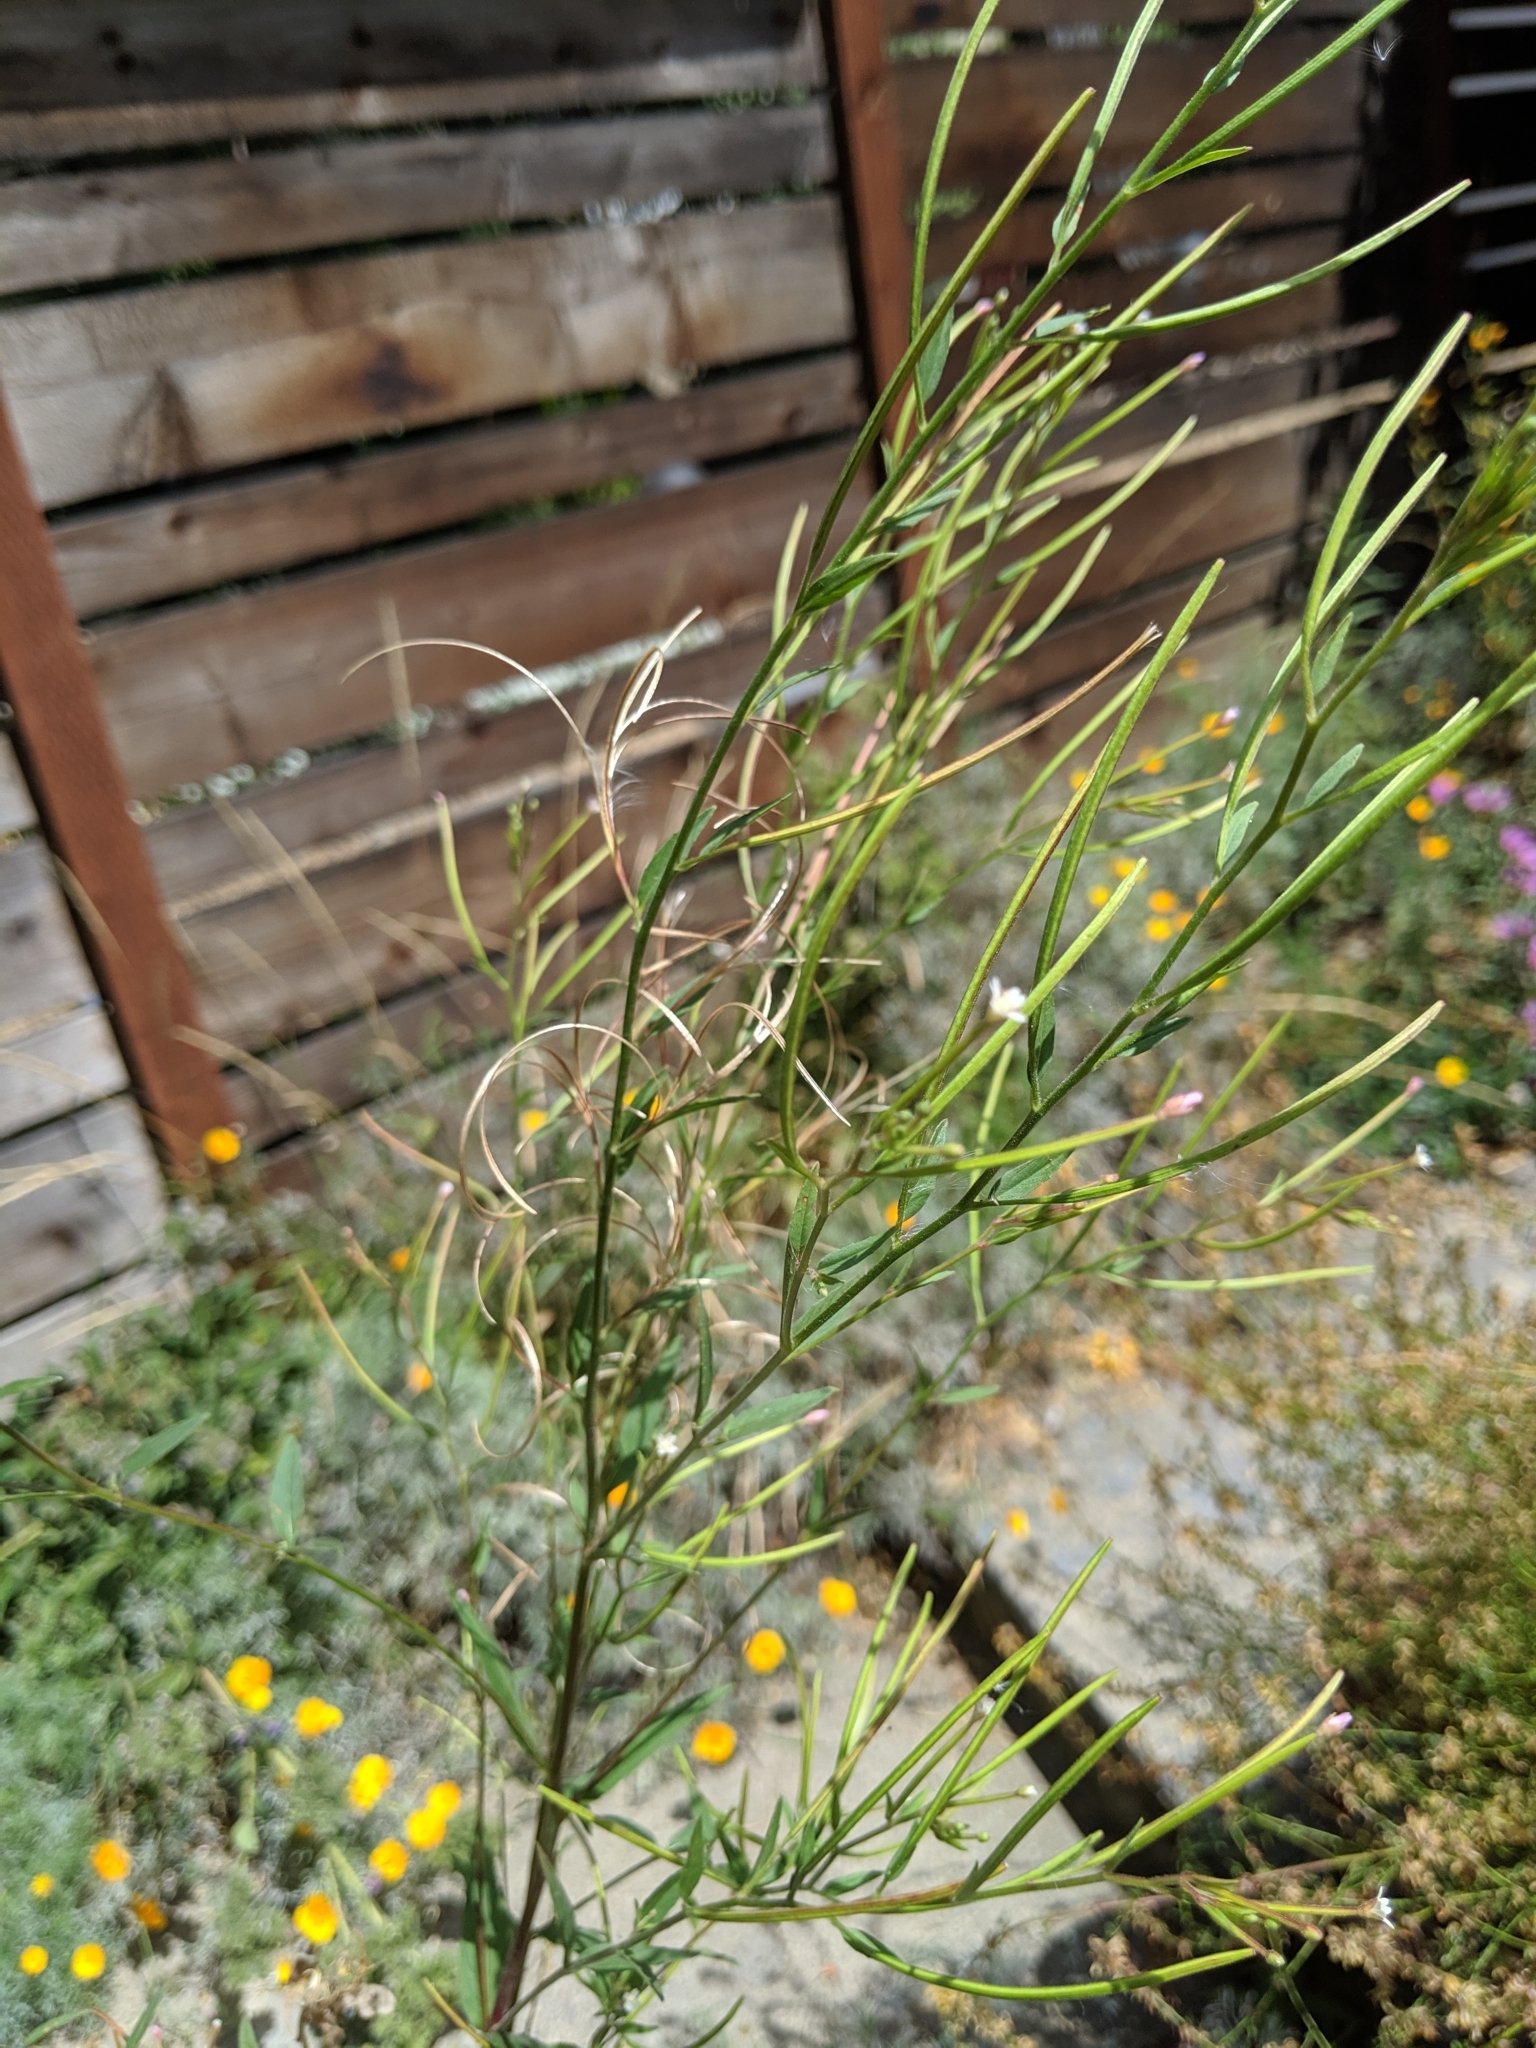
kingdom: Plantae
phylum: Tracheophyta
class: Magnoliopsida
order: Myrtales
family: Onagraceae
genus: Epilobium
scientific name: Epilobium ciliatum
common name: American willowherb
